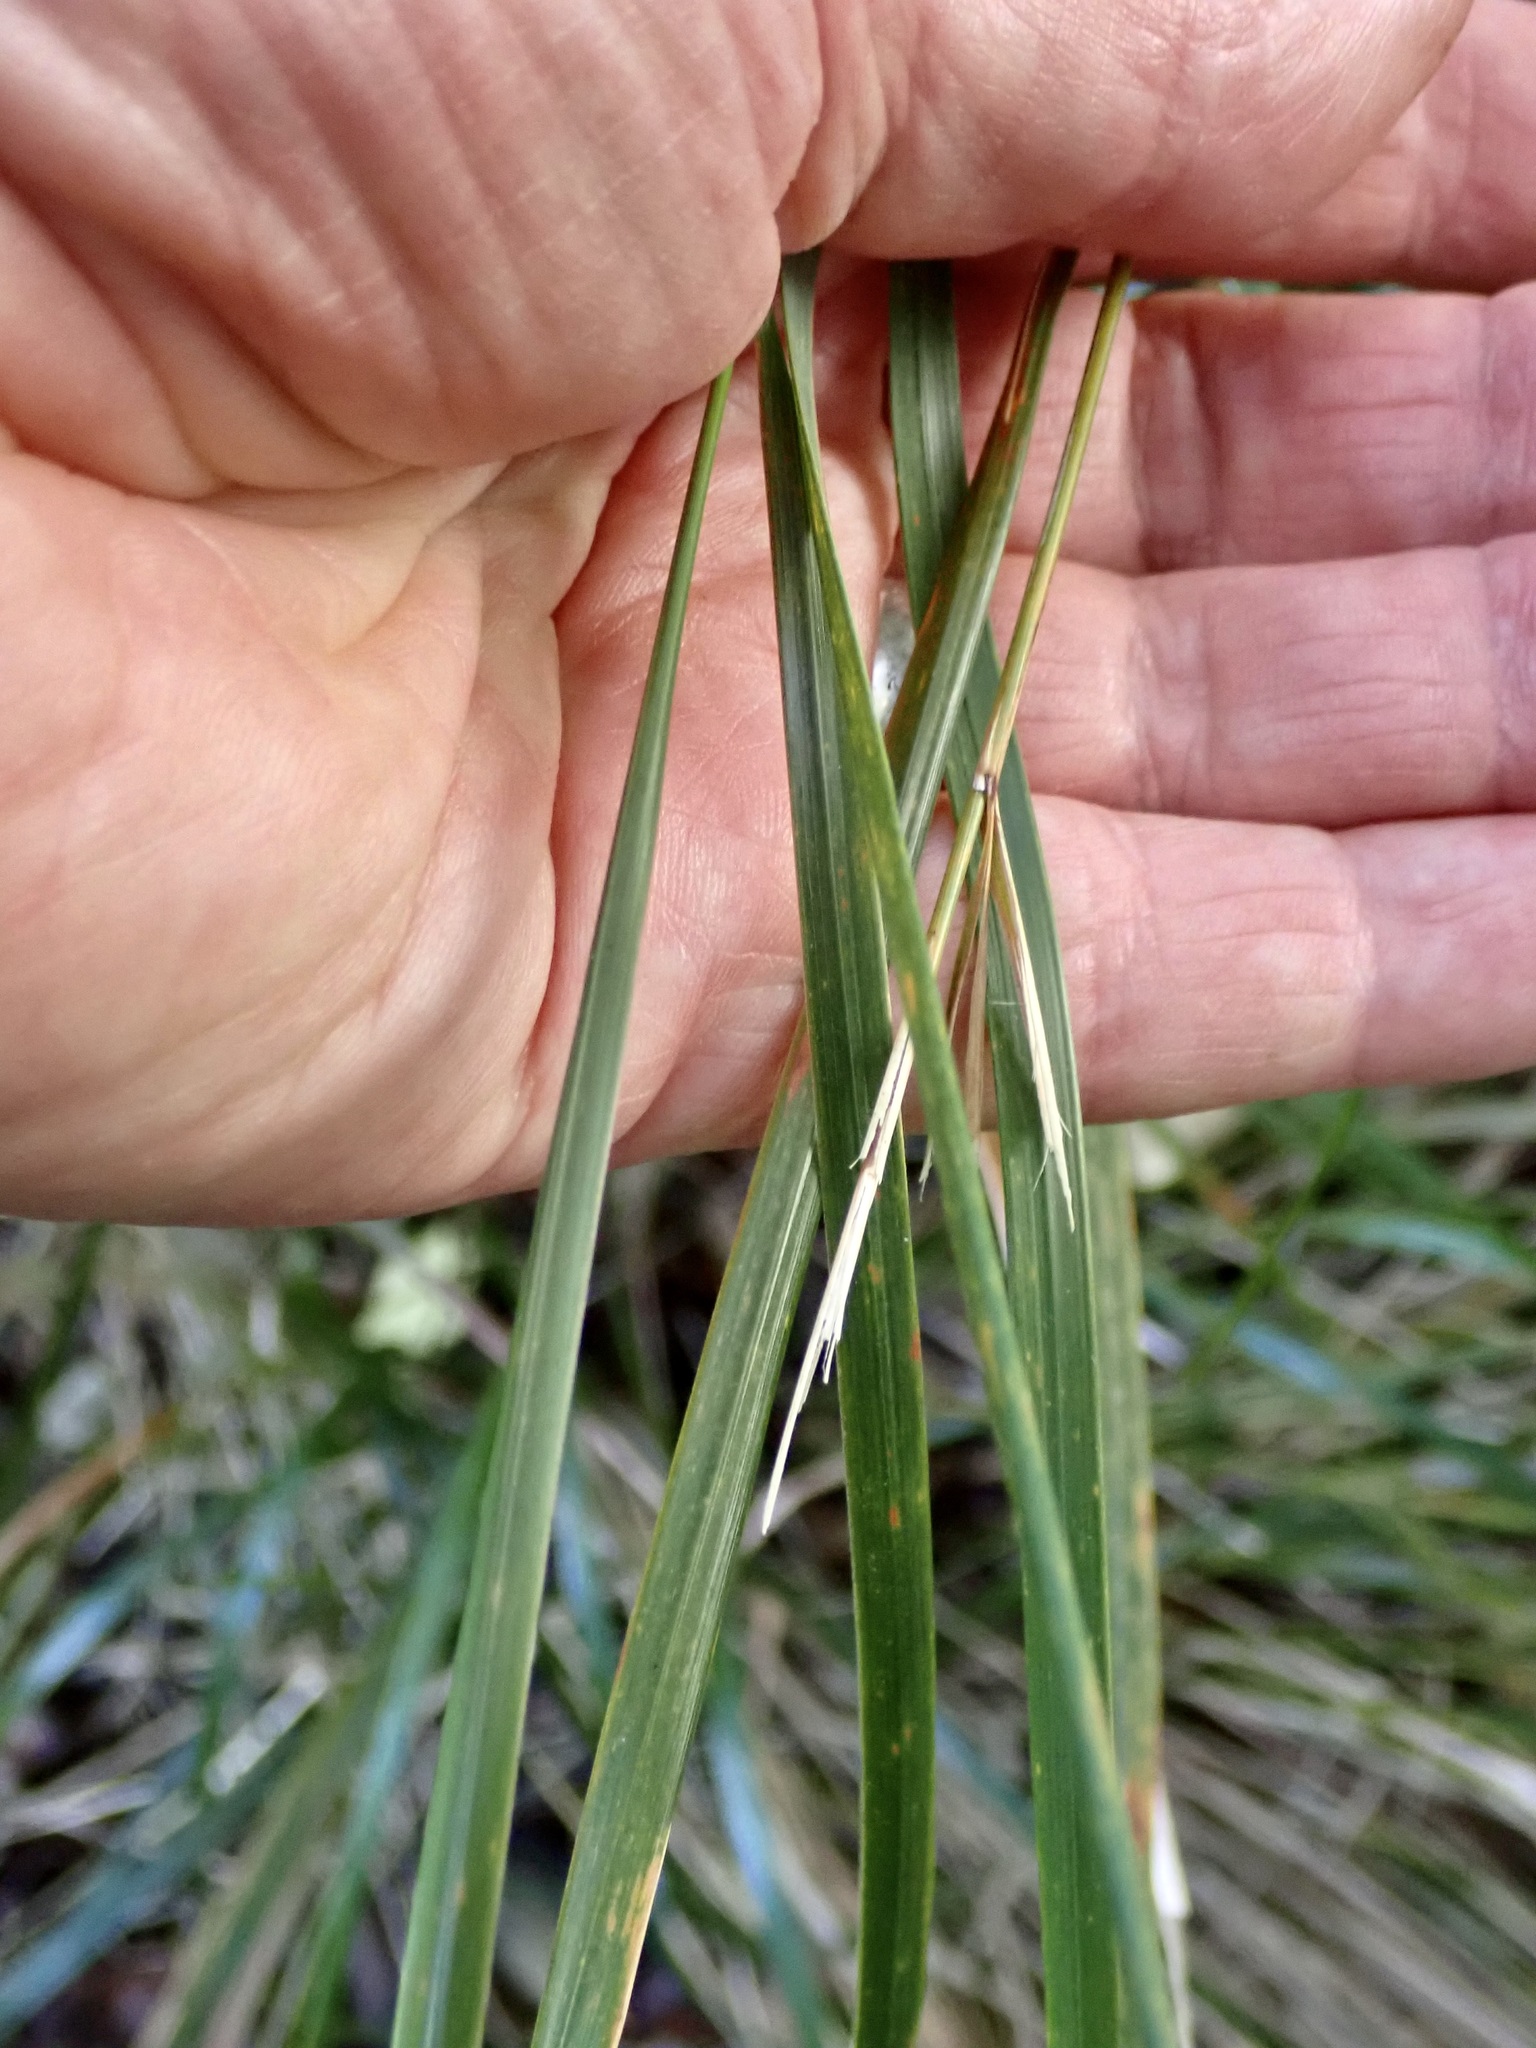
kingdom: Plantae
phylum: Tracheophyta
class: Liliopsida
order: Poales
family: Poaceae
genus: Anemanthele
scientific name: Anemanthele lessoniana
